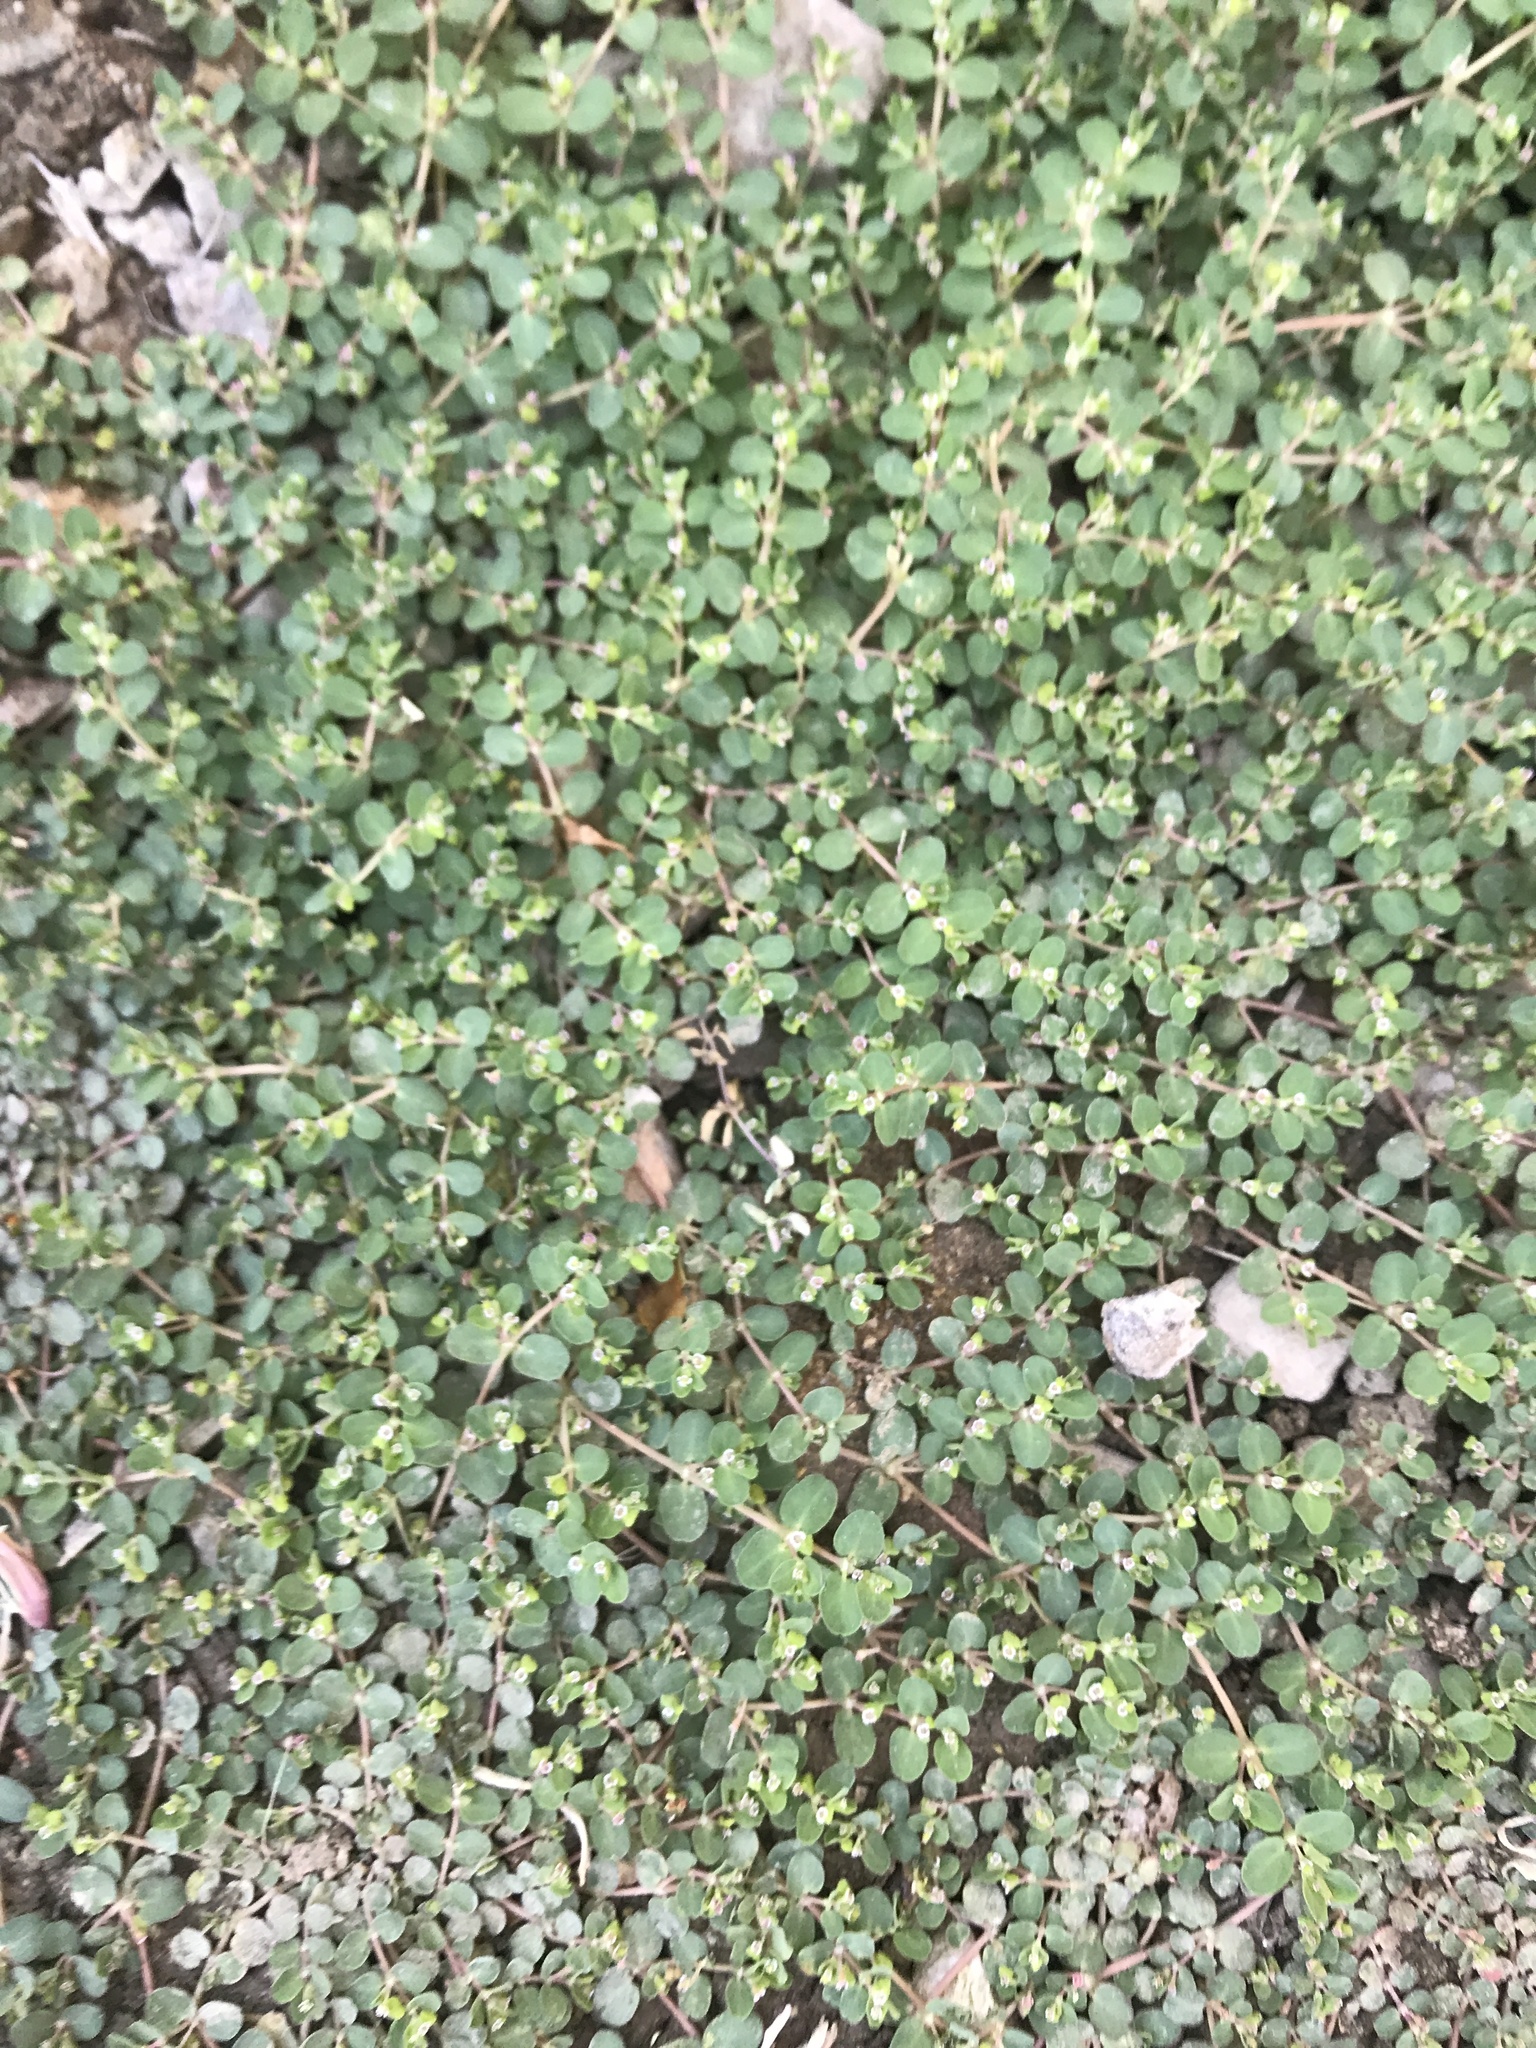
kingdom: Plantae
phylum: Tracheophyta
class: Magnoliopsida
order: Malpighiales
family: Euphorbiaceae
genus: Euphorbia
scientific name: Euphorbia serpens
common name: Matted sandmat
